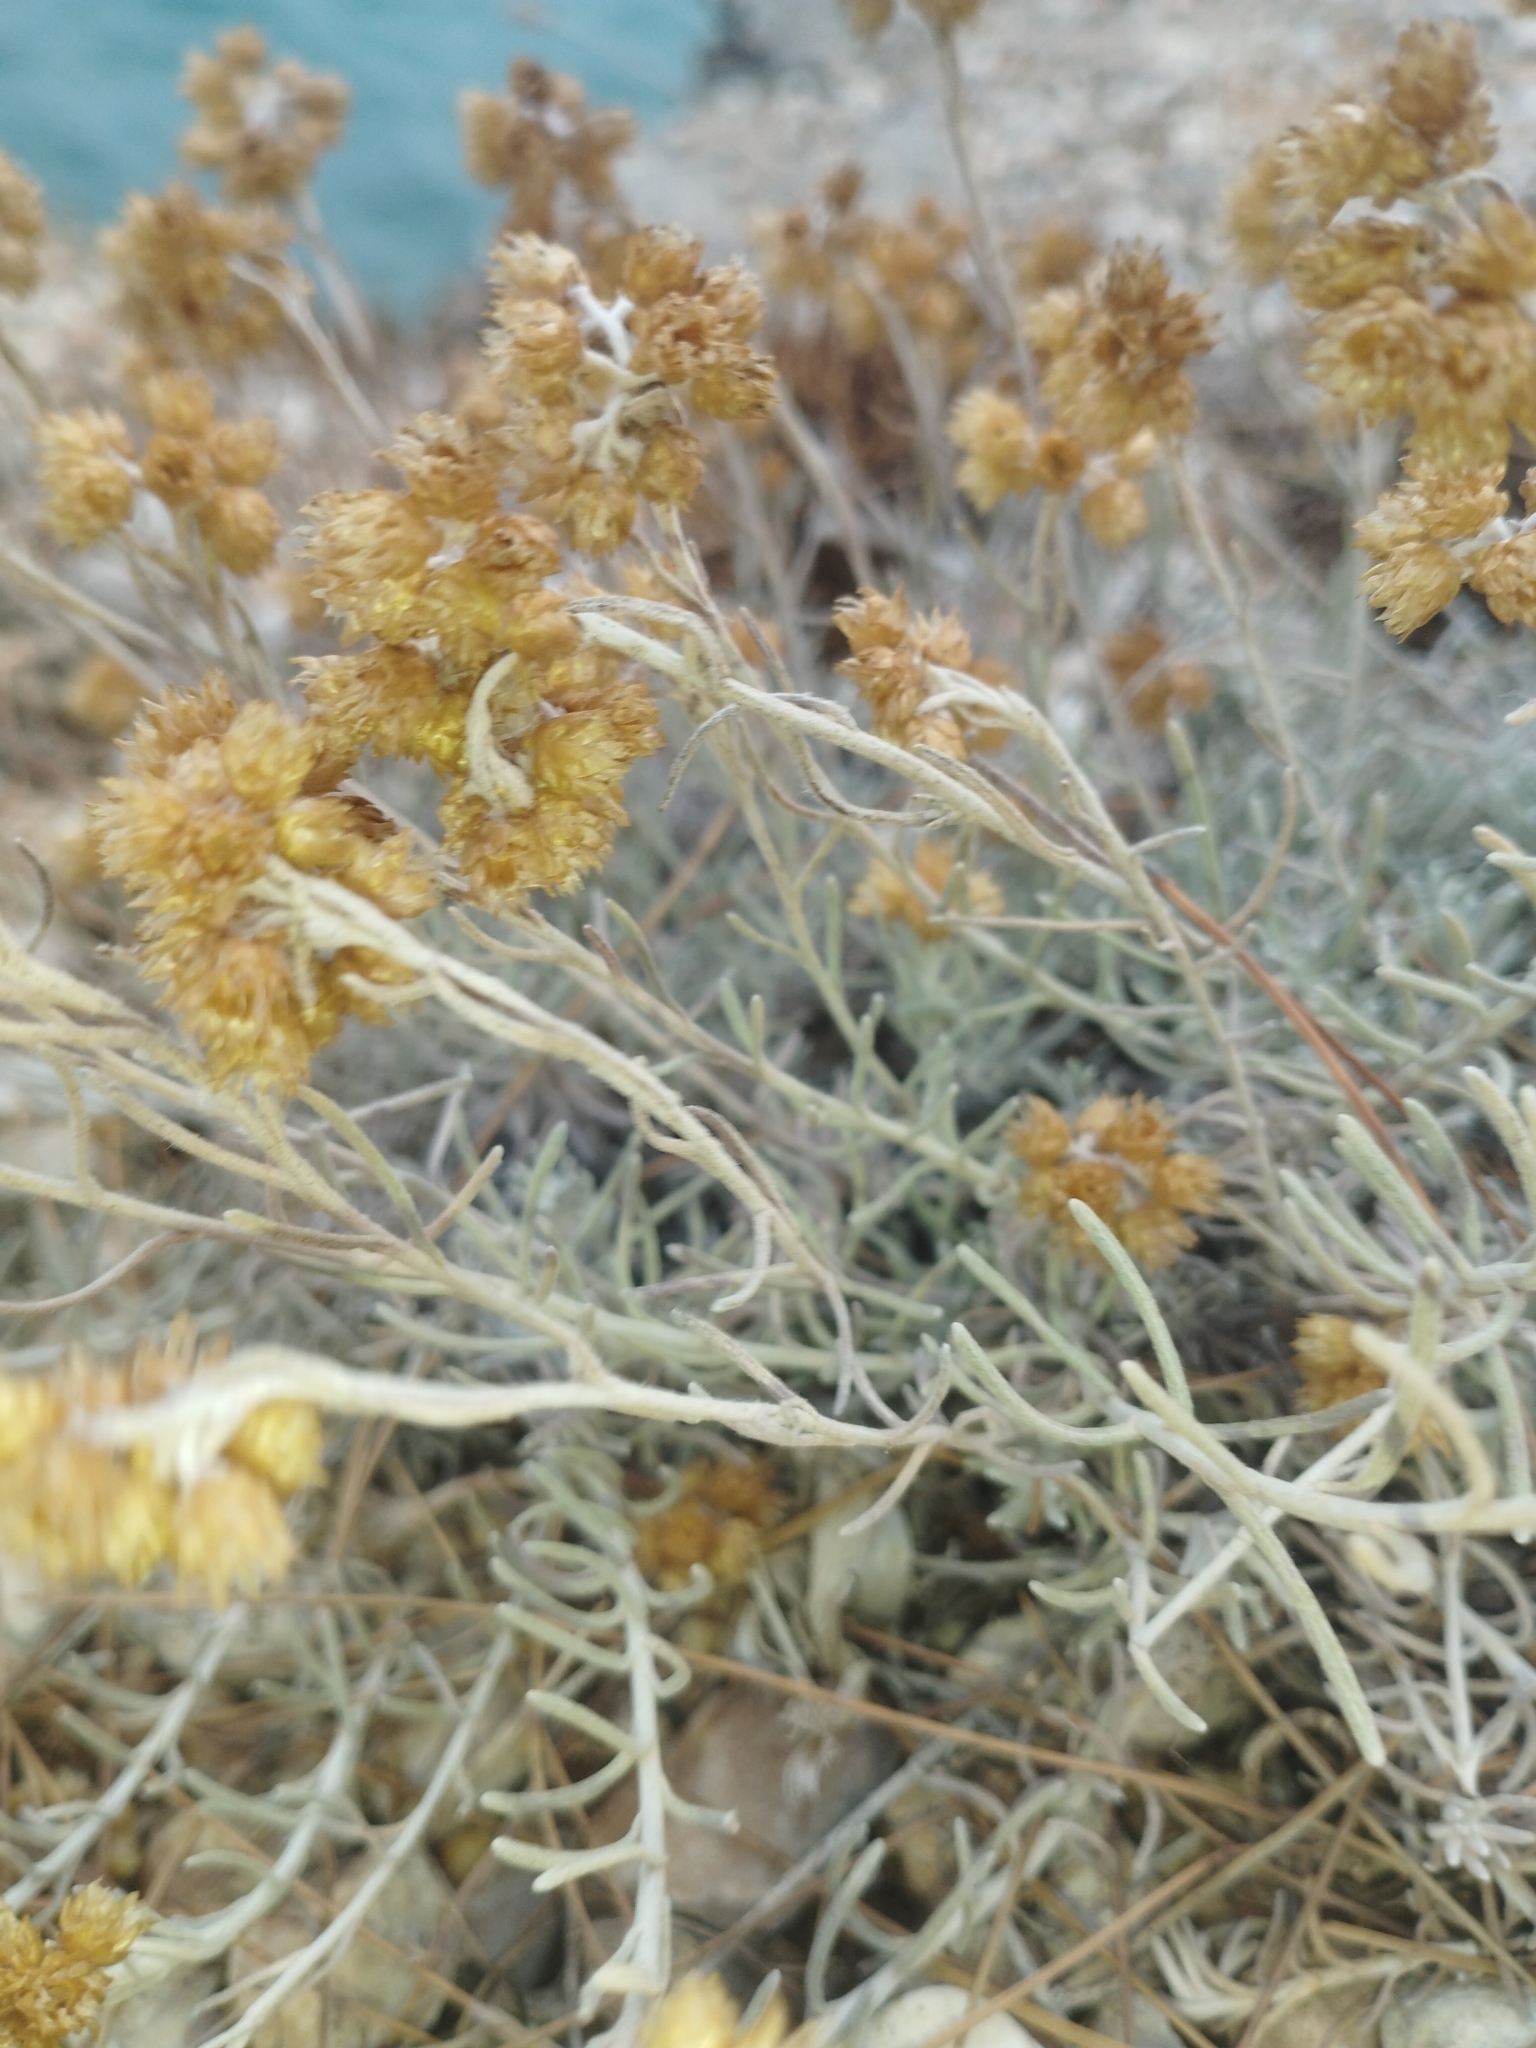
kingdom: Plantae
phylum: Tracheophyta
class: Magnoliopsida
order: Asterales
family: Asteraceae
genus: Helichrysum
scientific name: Helichrysum stoechas
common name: Goldilocks
